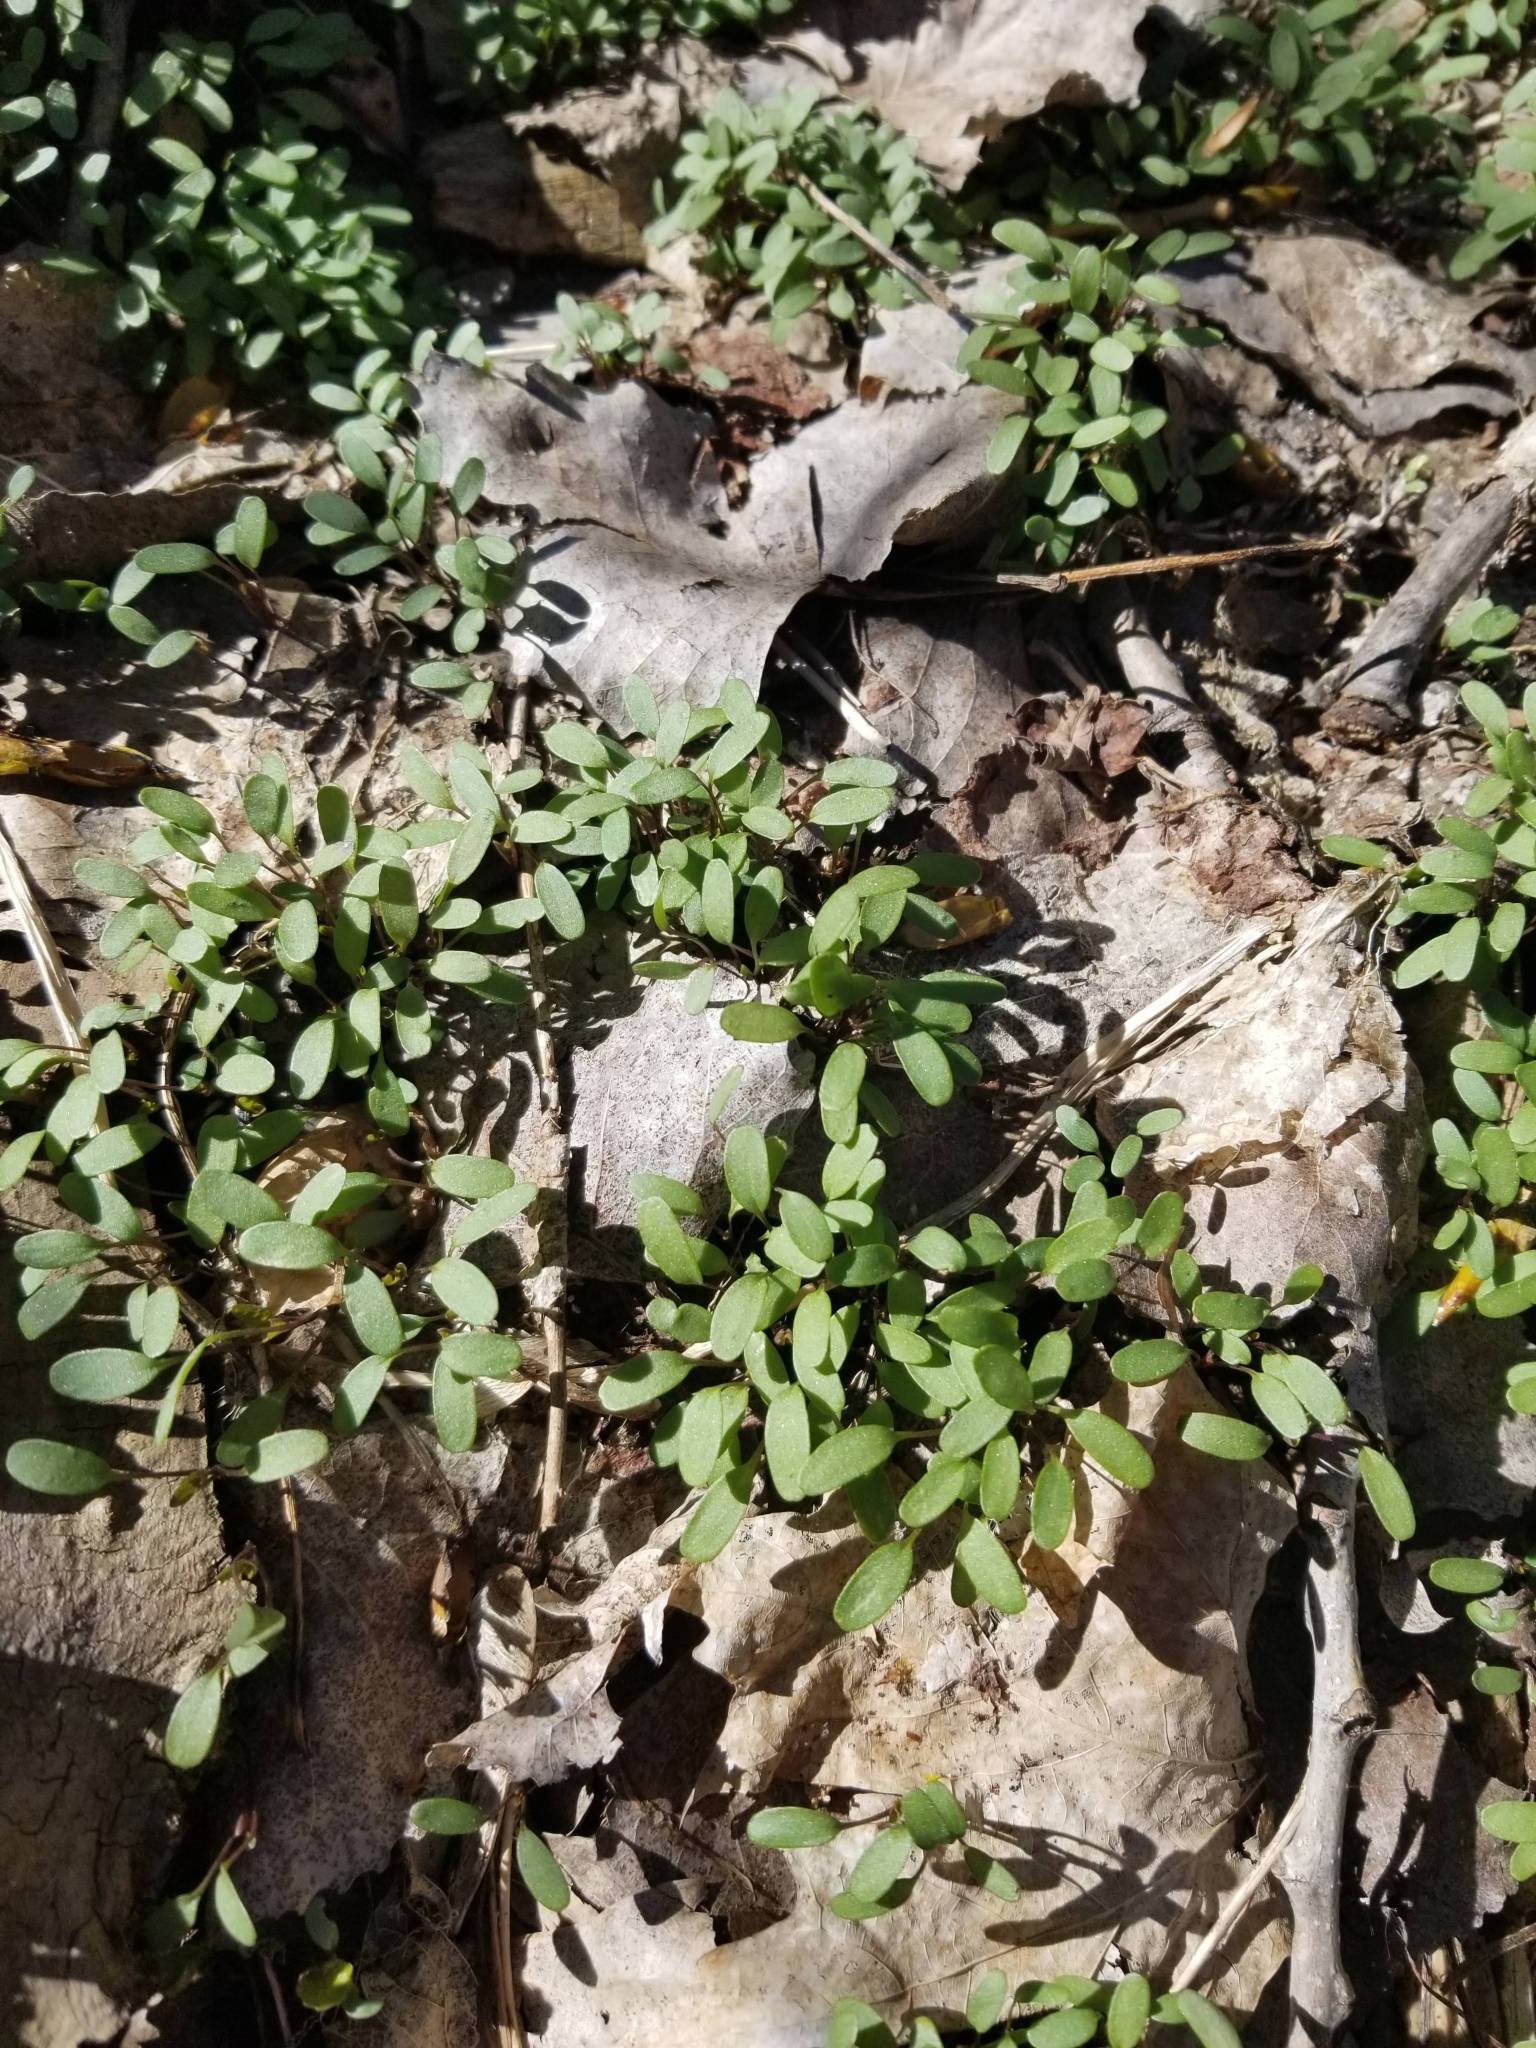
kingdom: Plantae
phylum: Tracheophyta
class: Magnoliopsida
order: Brassicales
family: Brassicaceae
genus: Alliaria
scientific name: Alliaria petiolata
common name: Garlic mustard
